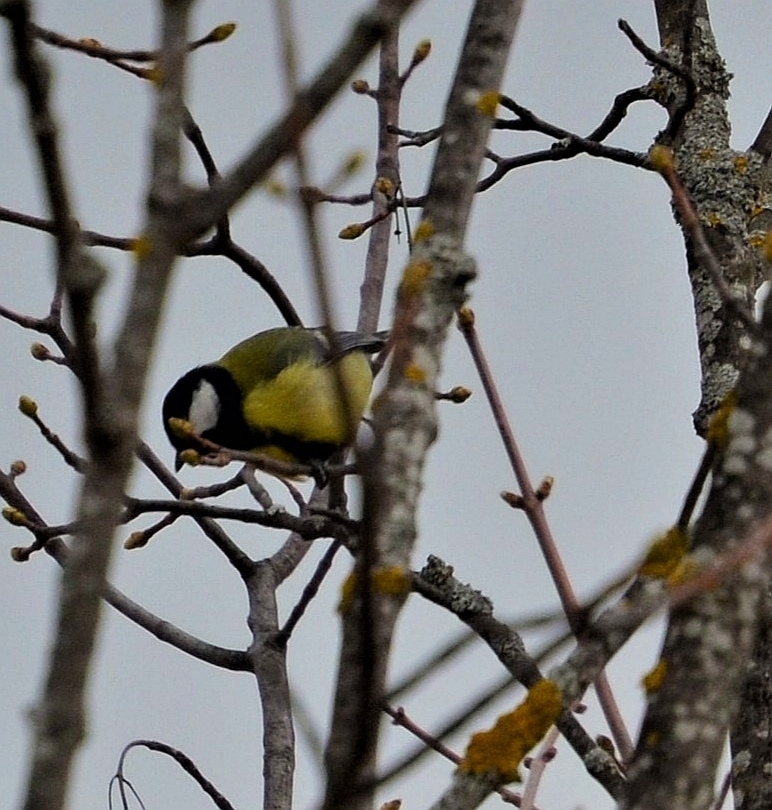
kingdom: Animalia
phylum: Chordata
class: Aves
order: Passeriformes
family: Paridae
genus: Parus
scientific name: Parus major
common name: Great tit
